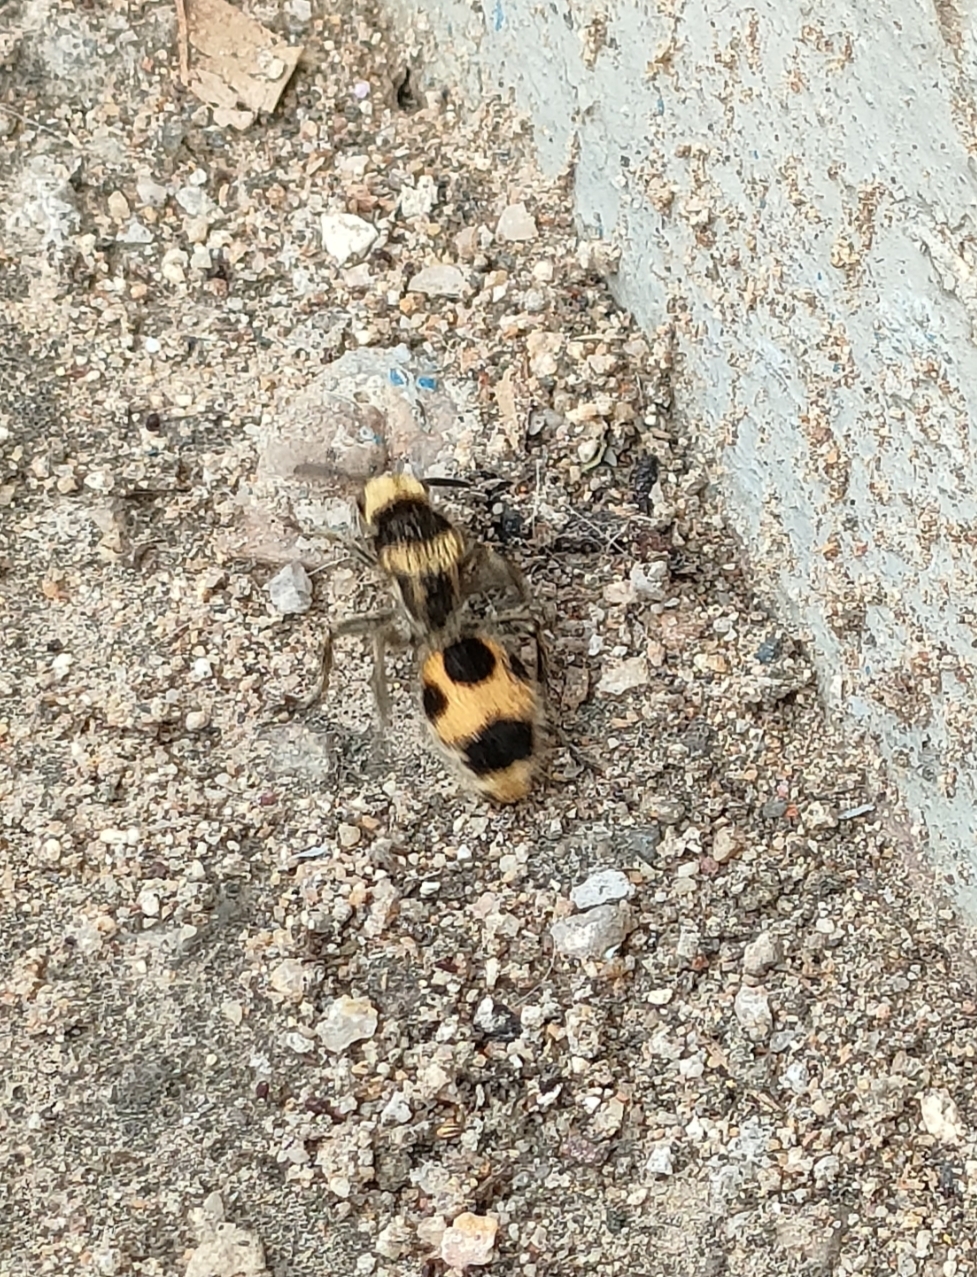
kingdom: Animalia
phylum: Arthropoda
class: Insecta
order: Hymenoptera
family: Mutillidae
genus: Dasymutilla
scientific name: Dasymutilla pulchra
